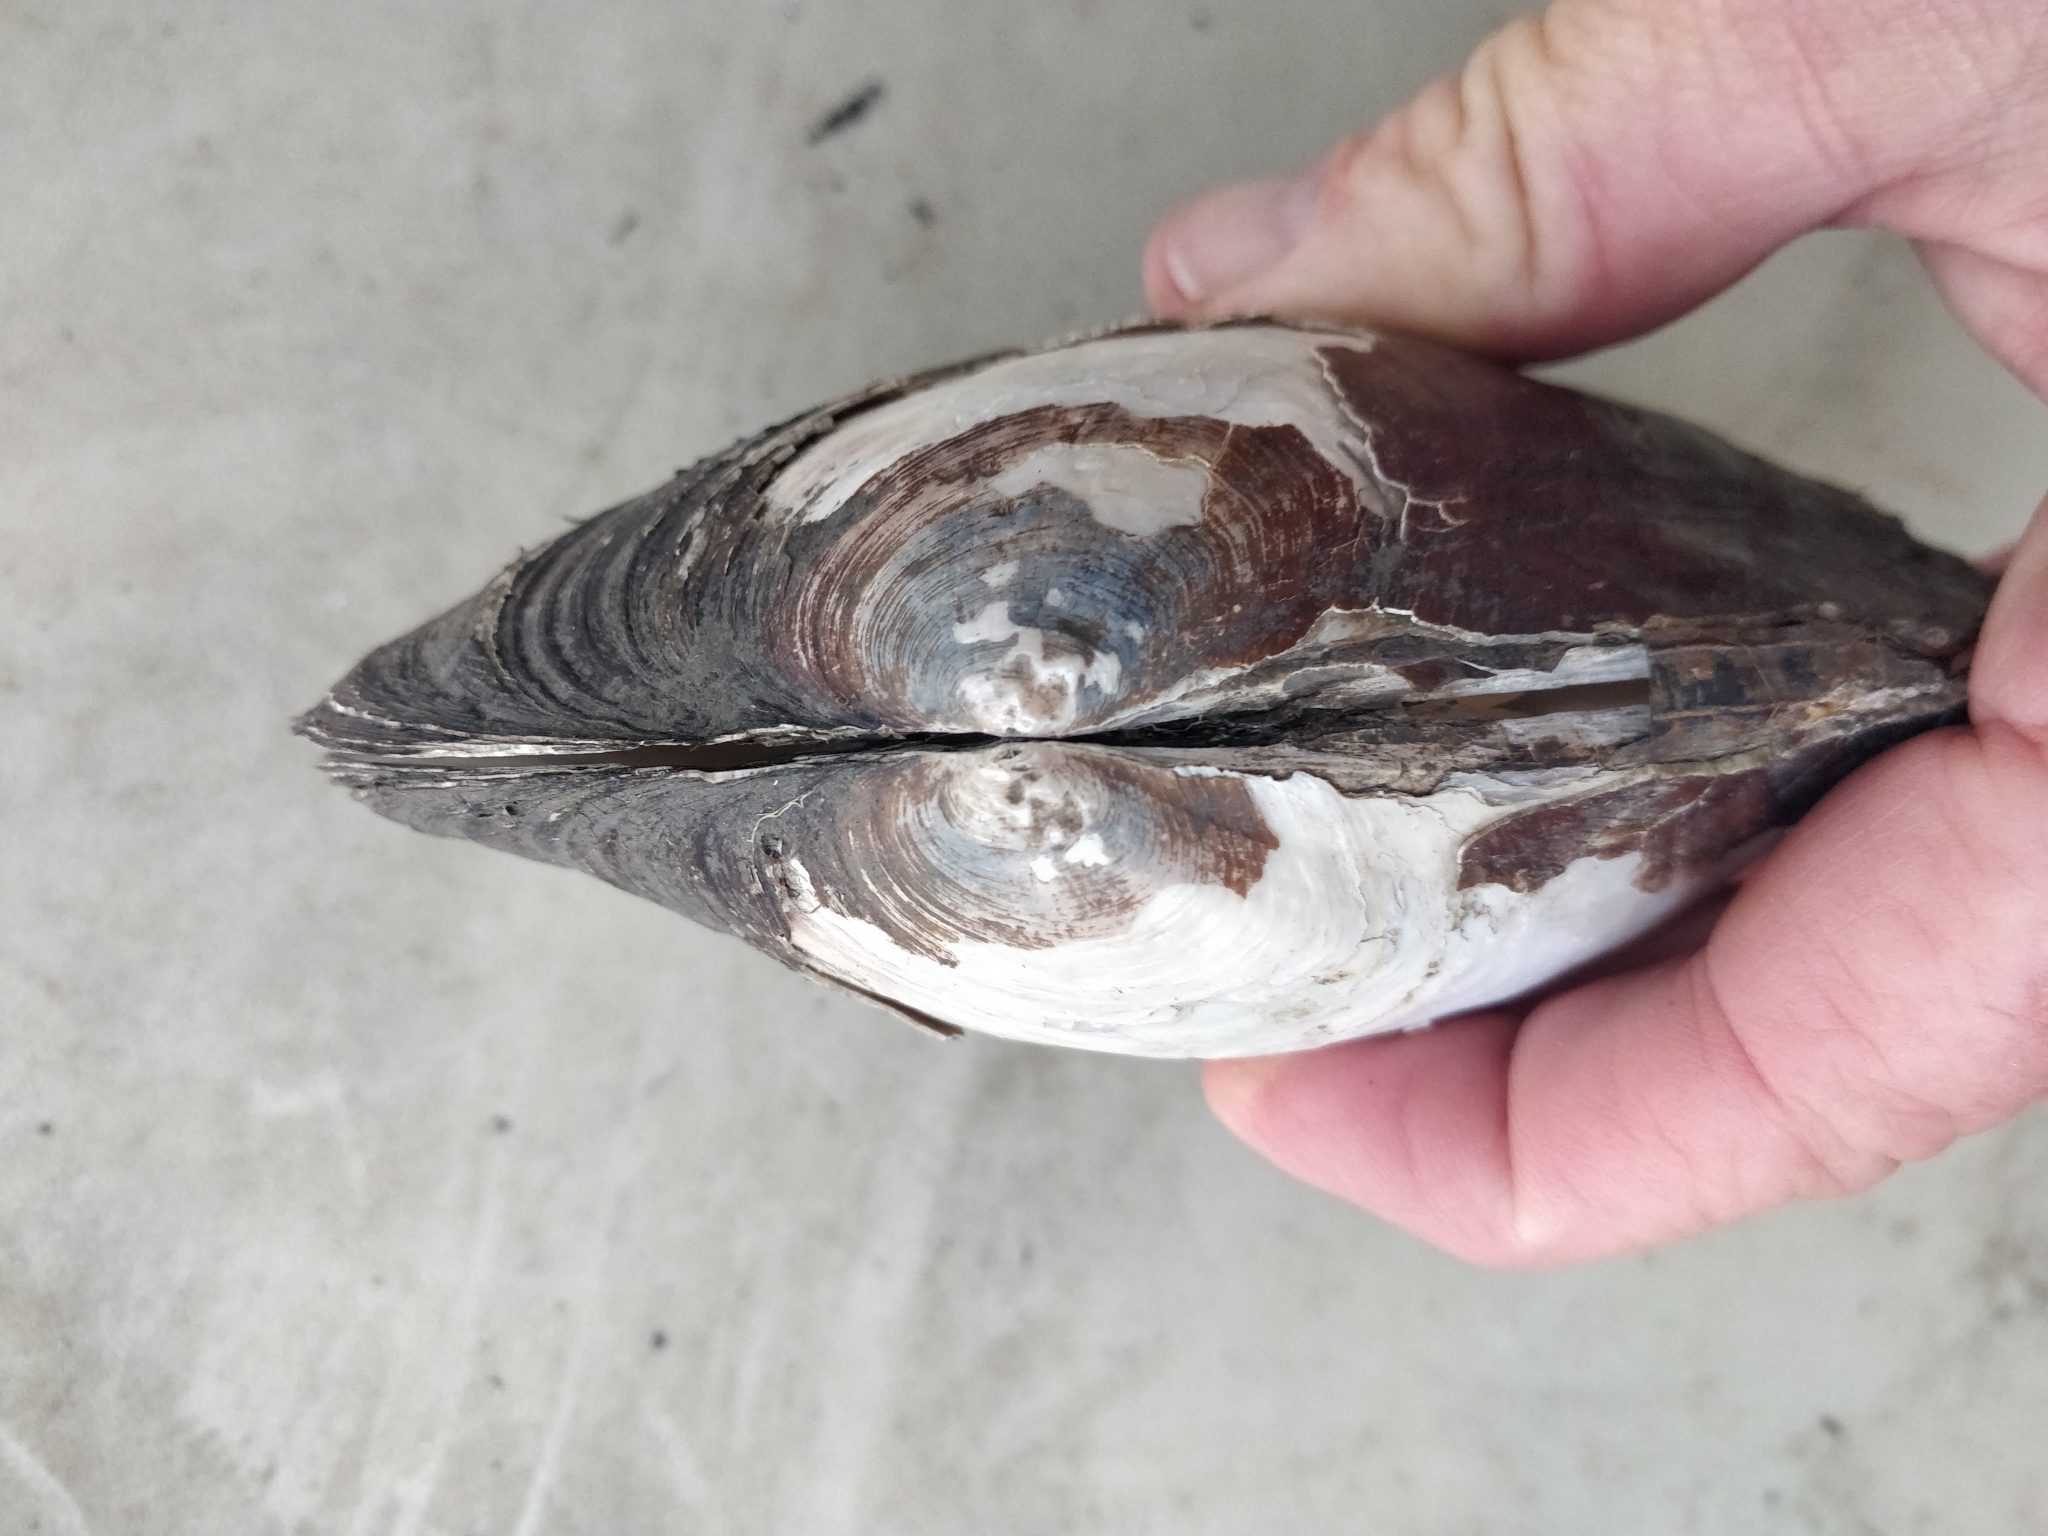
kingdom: Animalia
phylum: Mollusca
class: Bivalvia
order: Unionida
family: Unionidae
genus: Lasmigona
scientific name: Lasmigona complanata
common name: White heelsplitter
